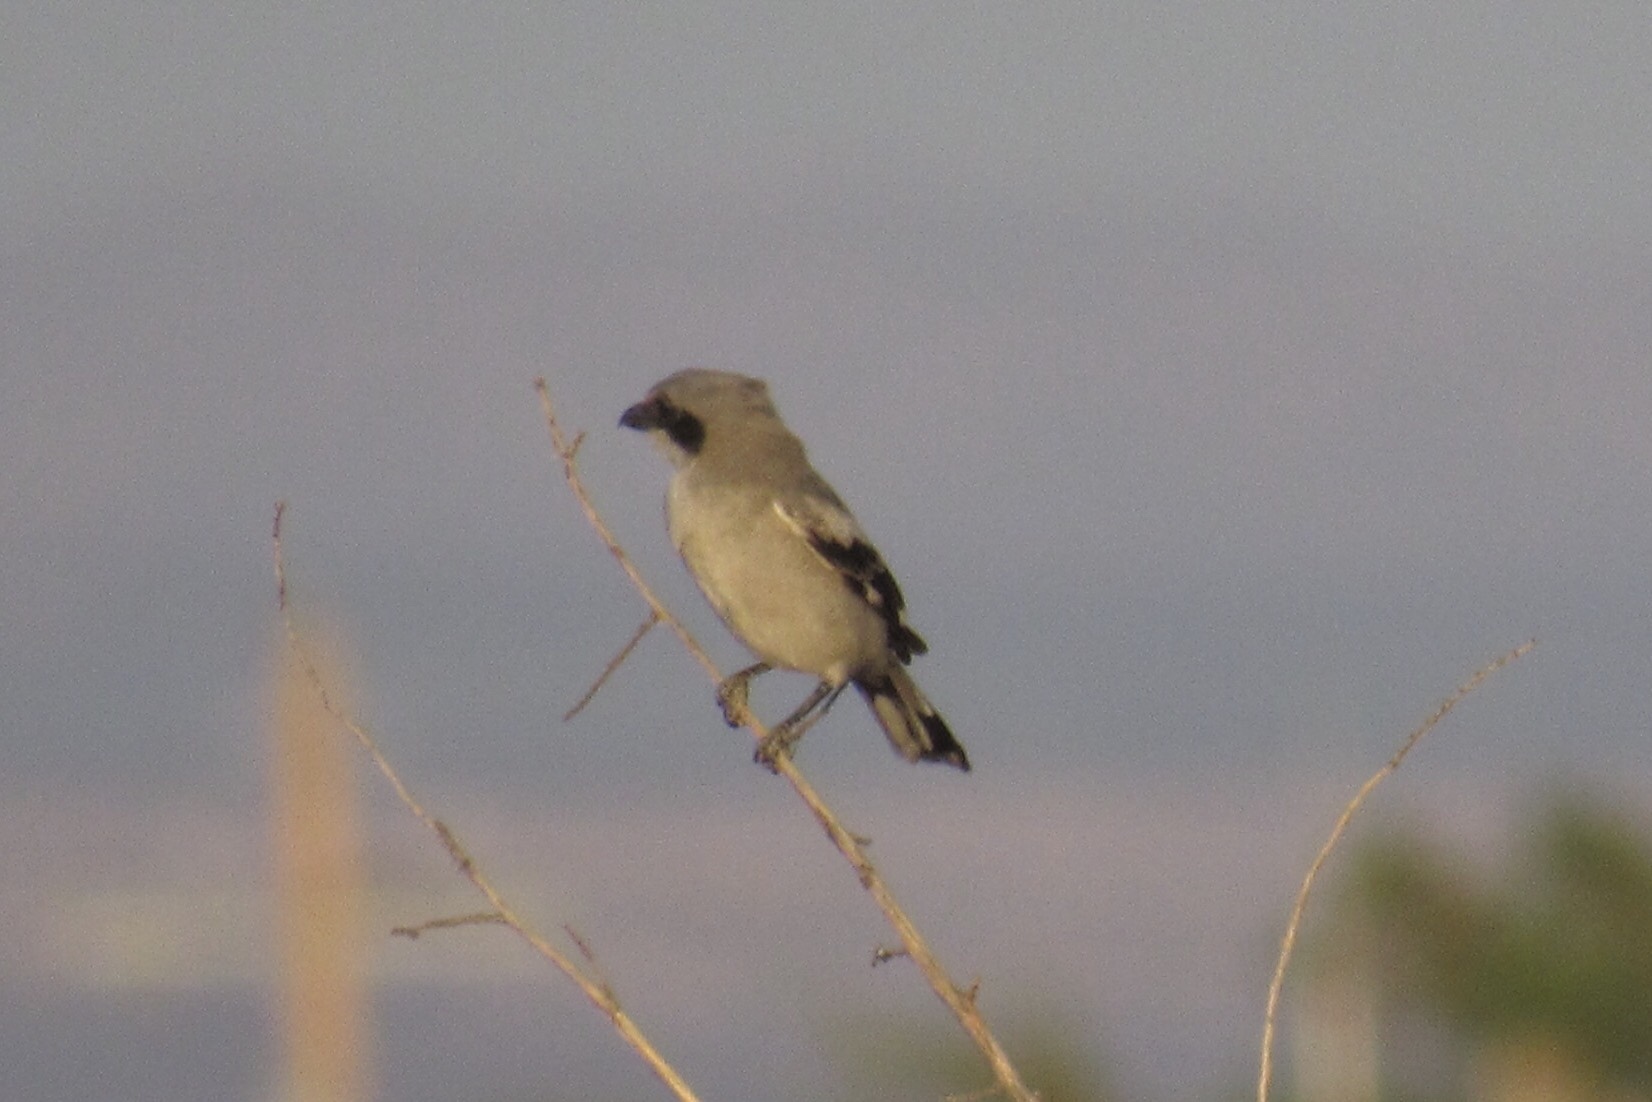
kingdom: Animalia
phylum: Chordata
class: Aves
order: Passeriformes
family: Laniidae
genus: Lanius
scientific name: Lanius ludovicianus
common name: Loggerhead shrike
